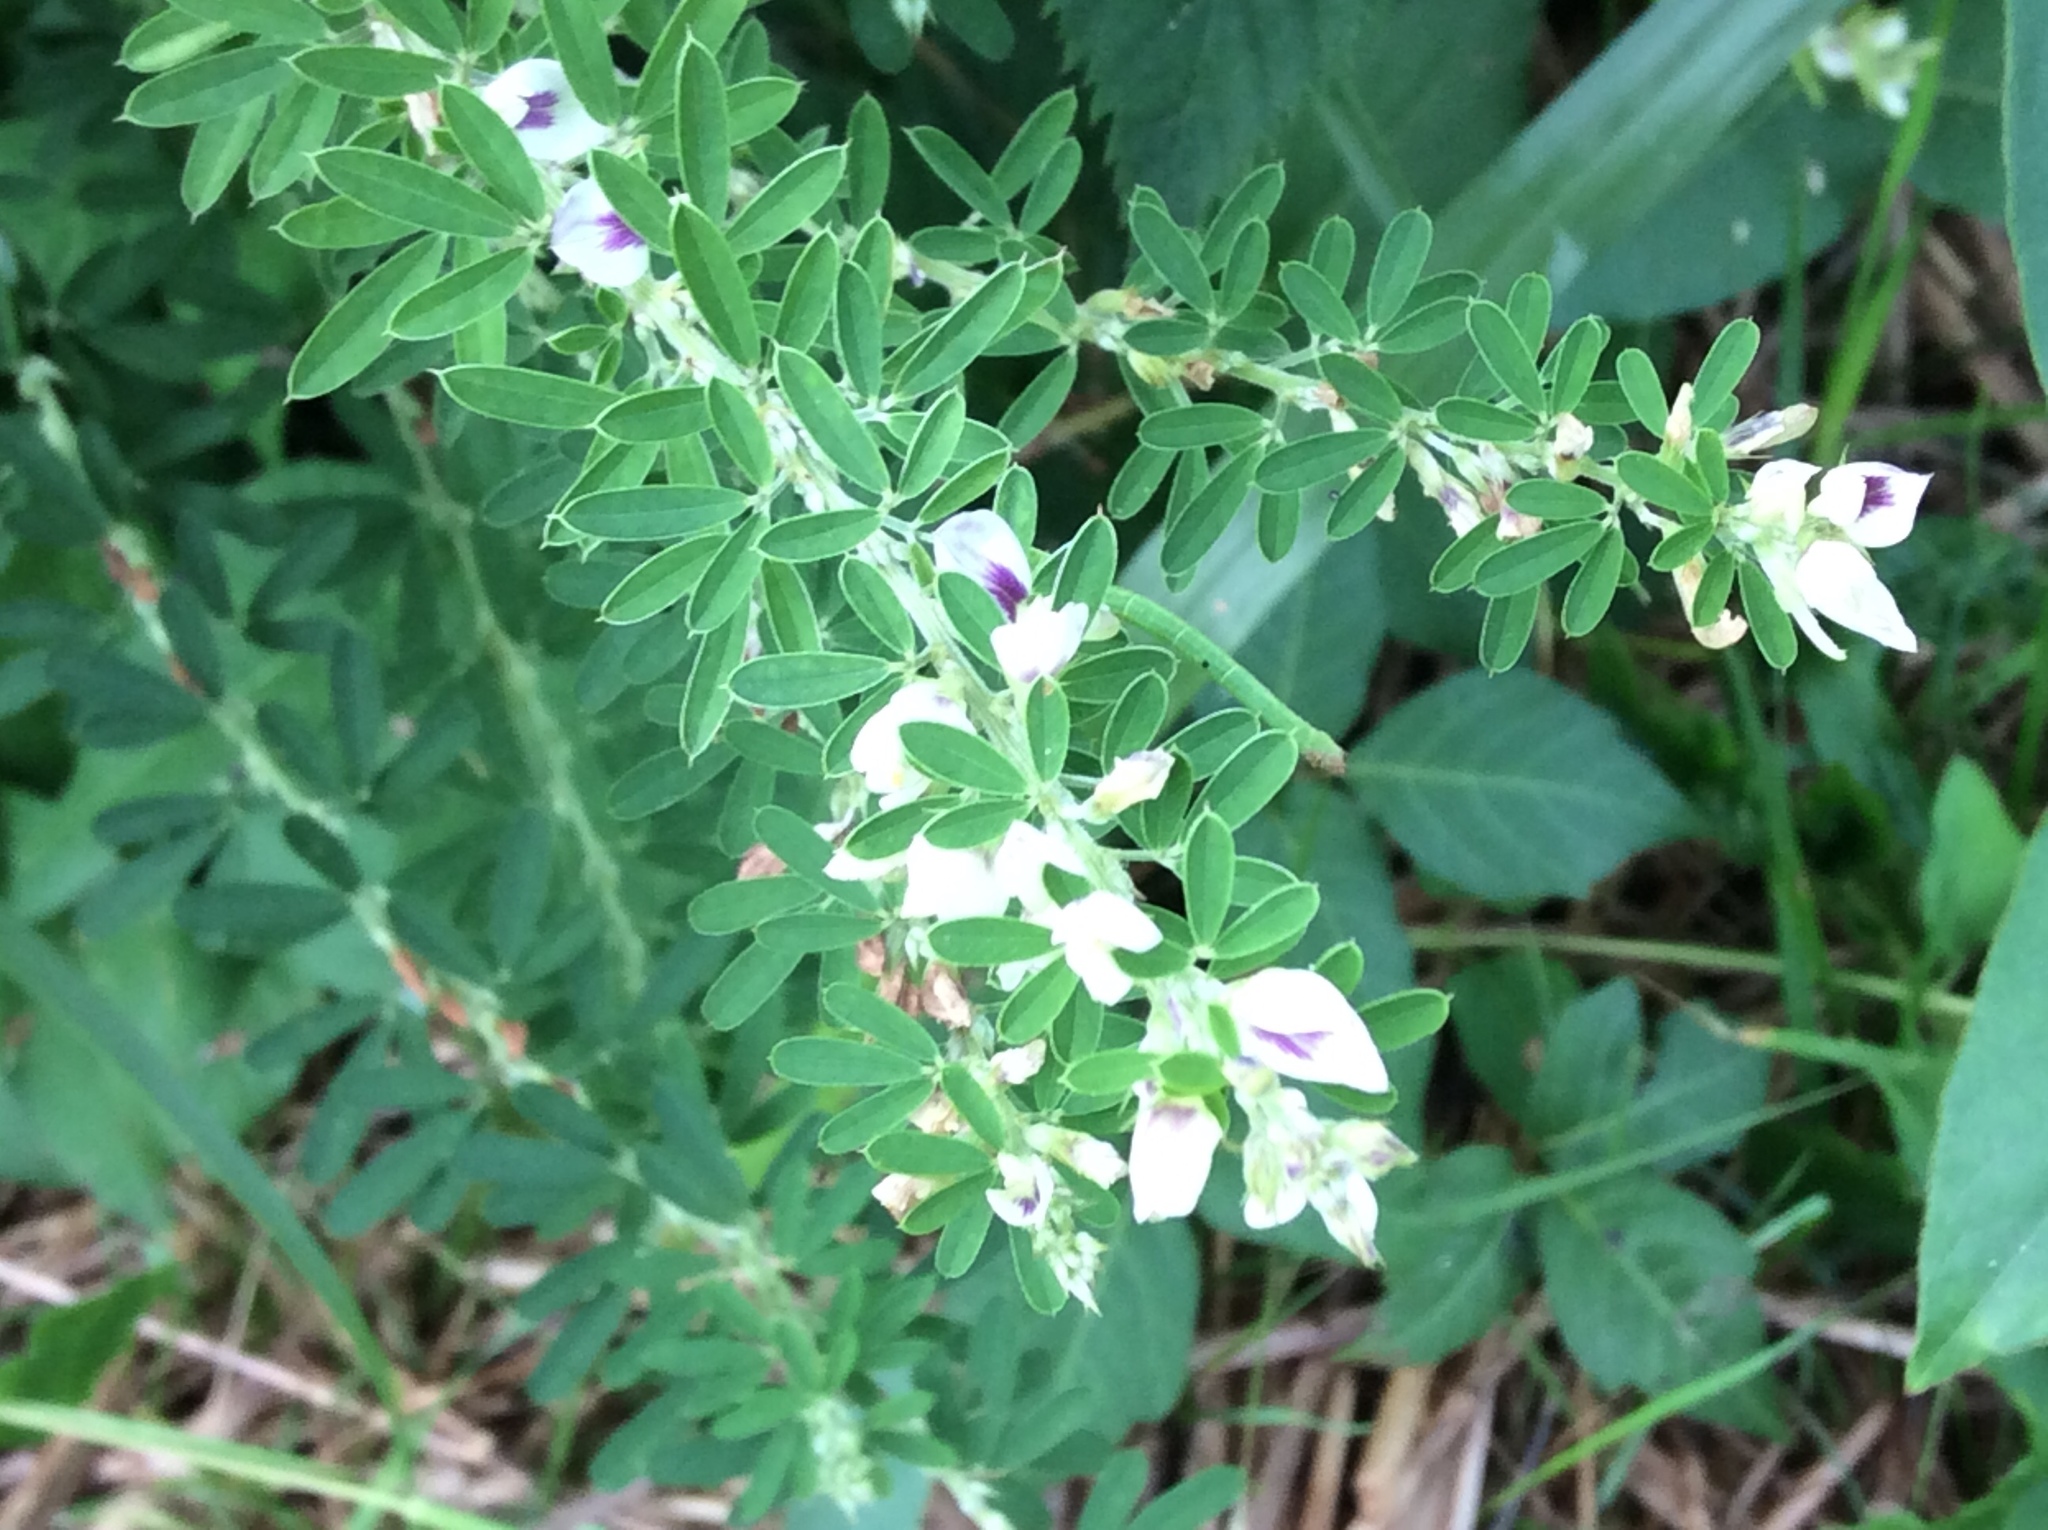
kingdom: Plantae
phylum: Tracheophyta
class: Magnoliopsida
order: Fabales
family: Fabaceae
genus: Lespedeza
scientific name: Lespedeza cuneata
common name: Chinese bush-clover
